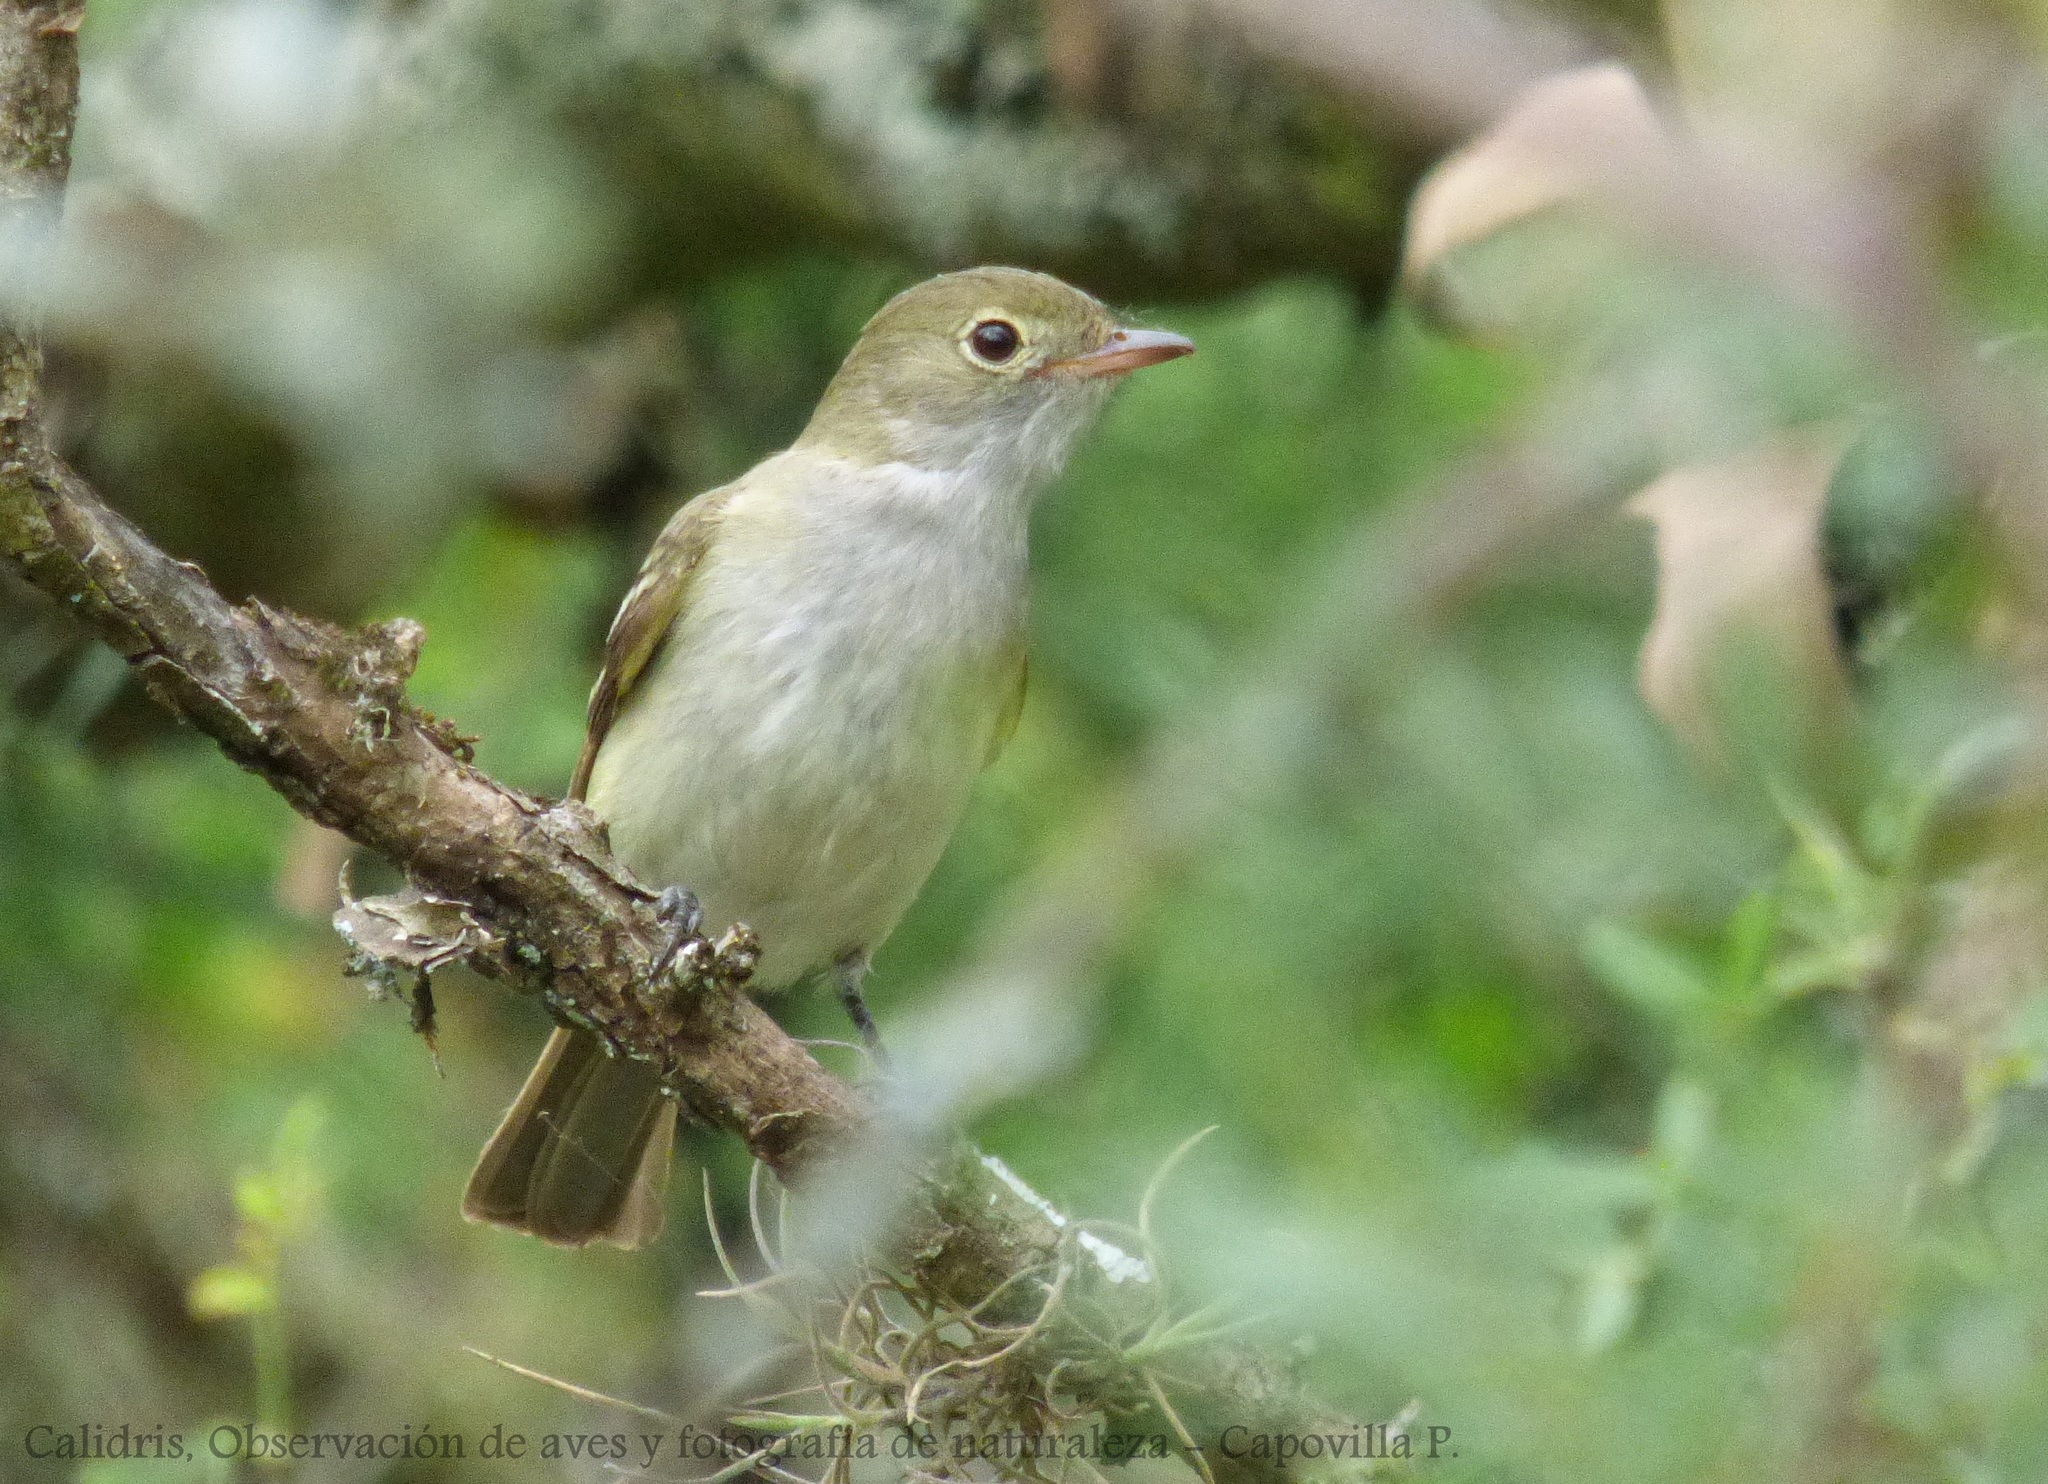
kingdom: Animalia
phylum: Chordata
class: Aves
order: Passeriformes
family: Tyrannidae
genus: Elaenia
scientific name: Elaenia parvirostris
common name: Small-billed elaenia
